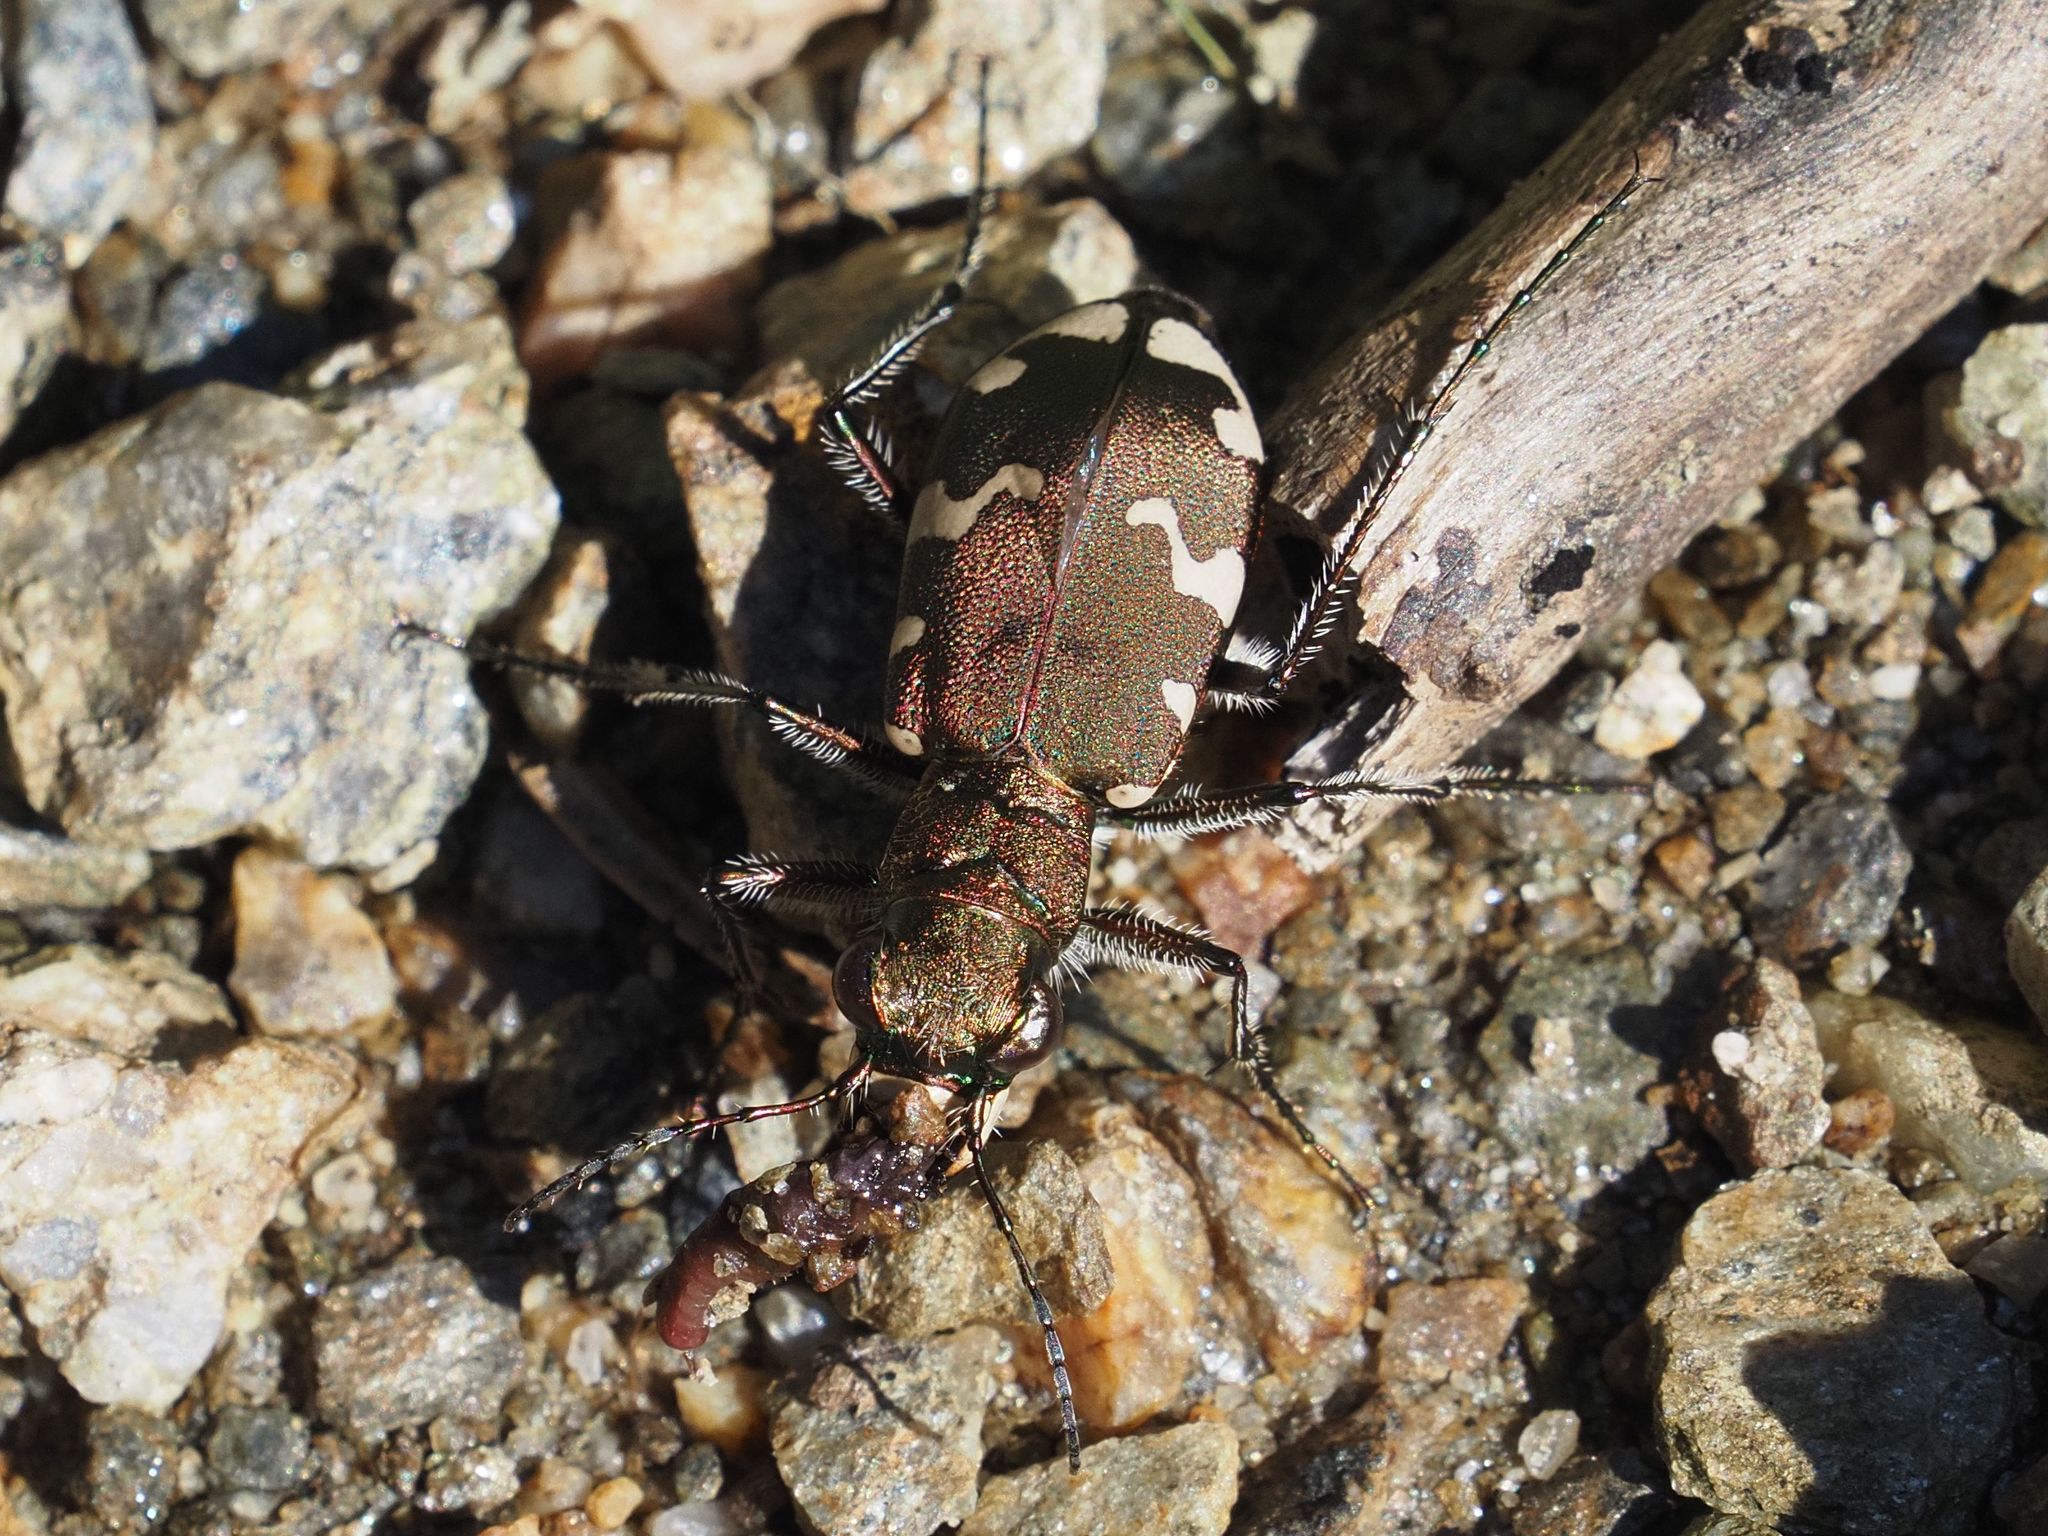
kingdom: Animalia
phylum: Arthropoda
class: Insecta
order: Coleoptera
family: Carabidae
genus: Cicindela
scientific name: Cicindela sylvicola
